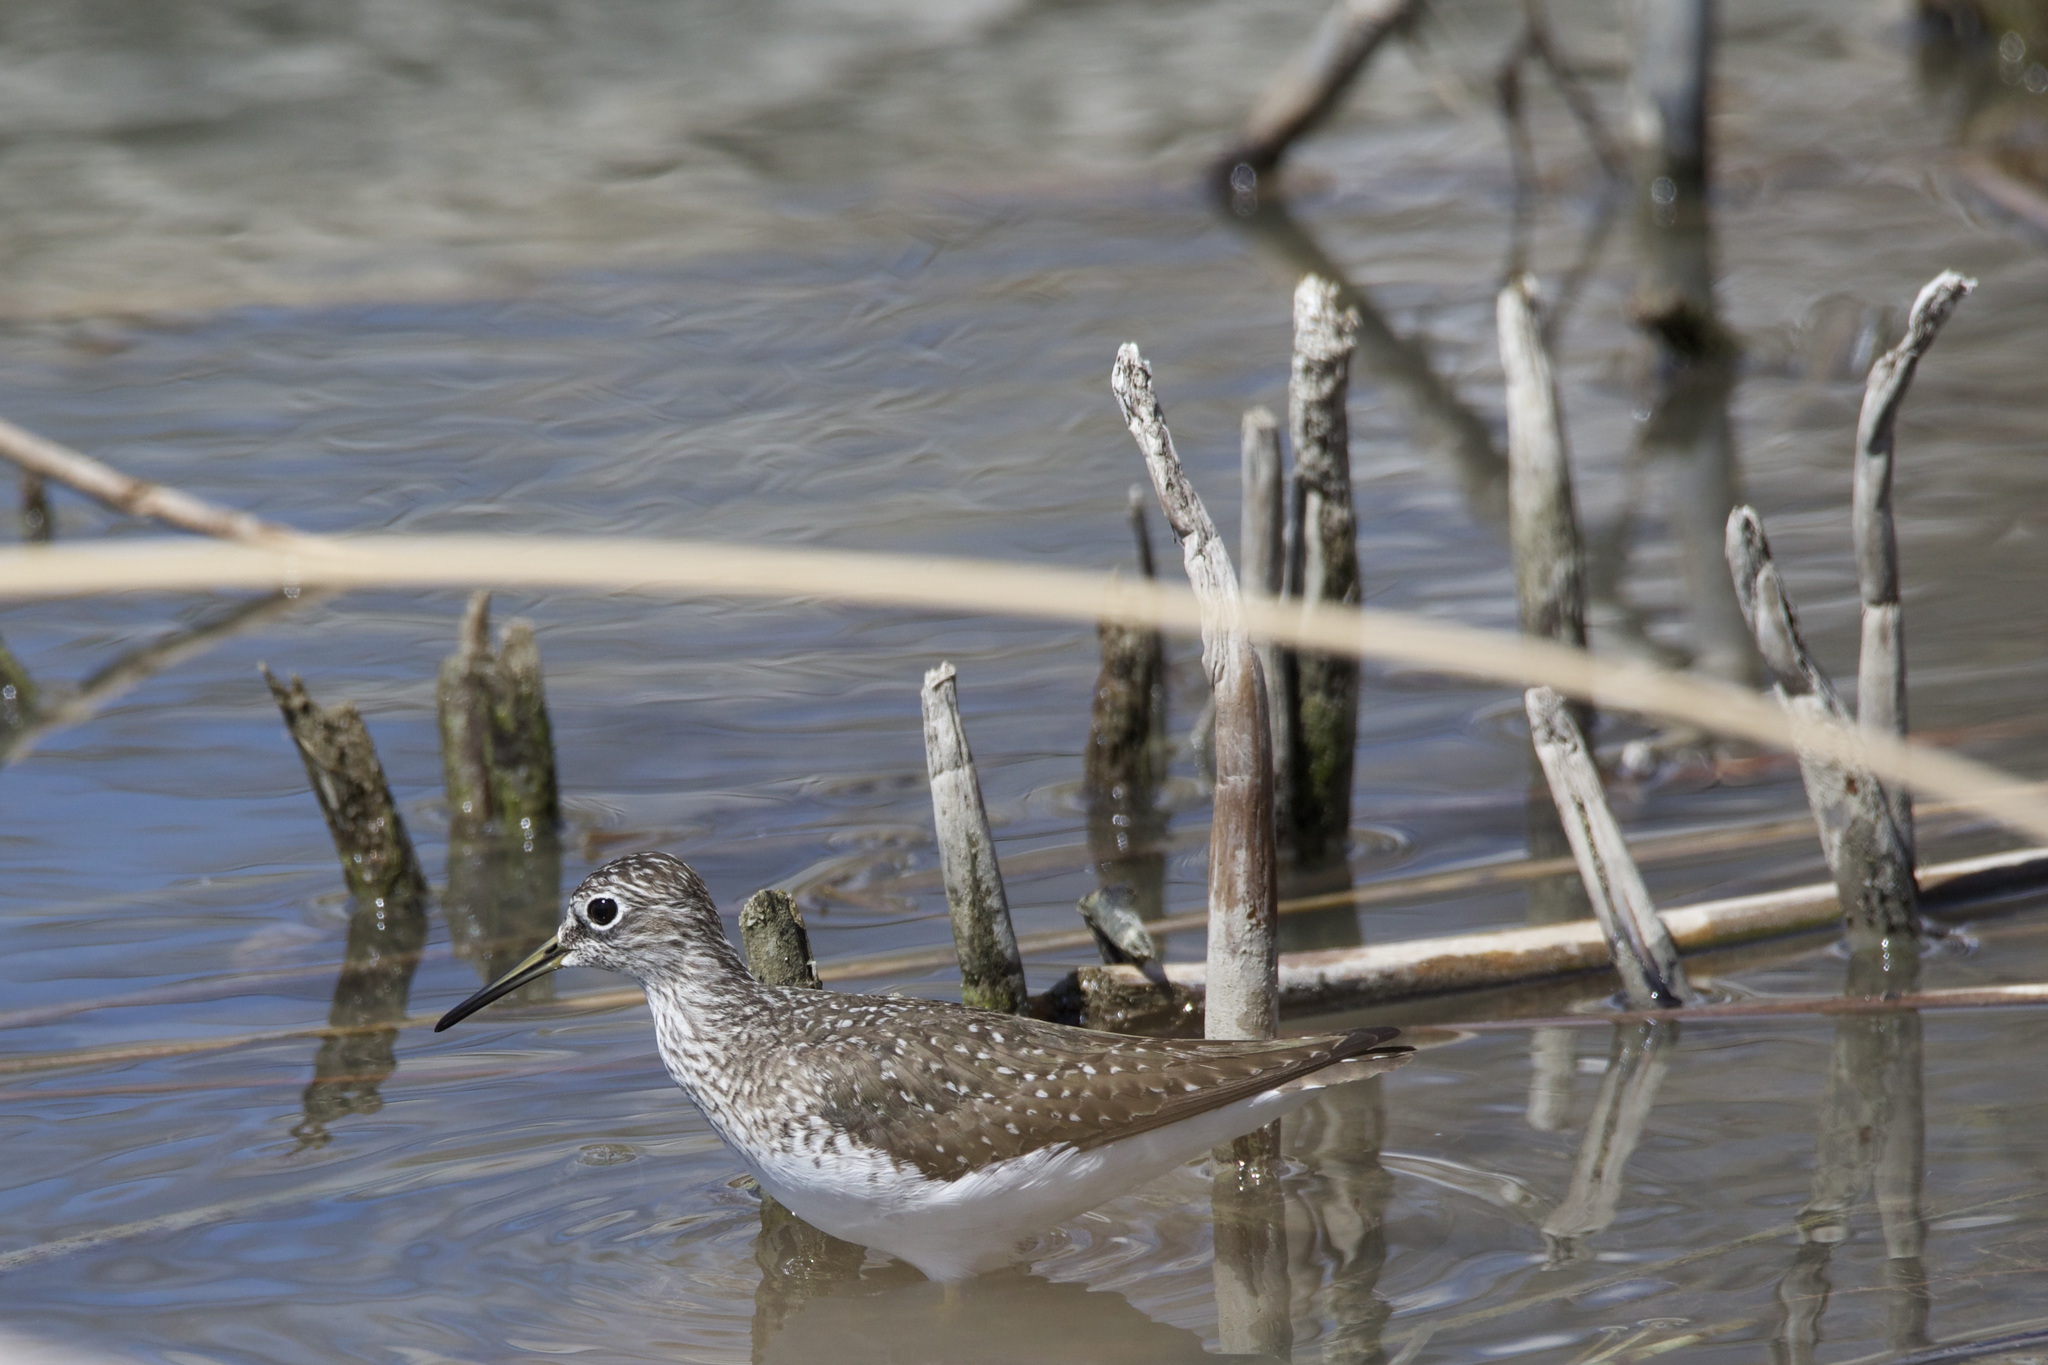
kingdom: Animalia
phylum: Chordata
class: Aves
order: Charadriiformes
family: Scolopacidae
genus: Tringa
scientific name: Tringa solitaria
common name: Solitary sandpiper
